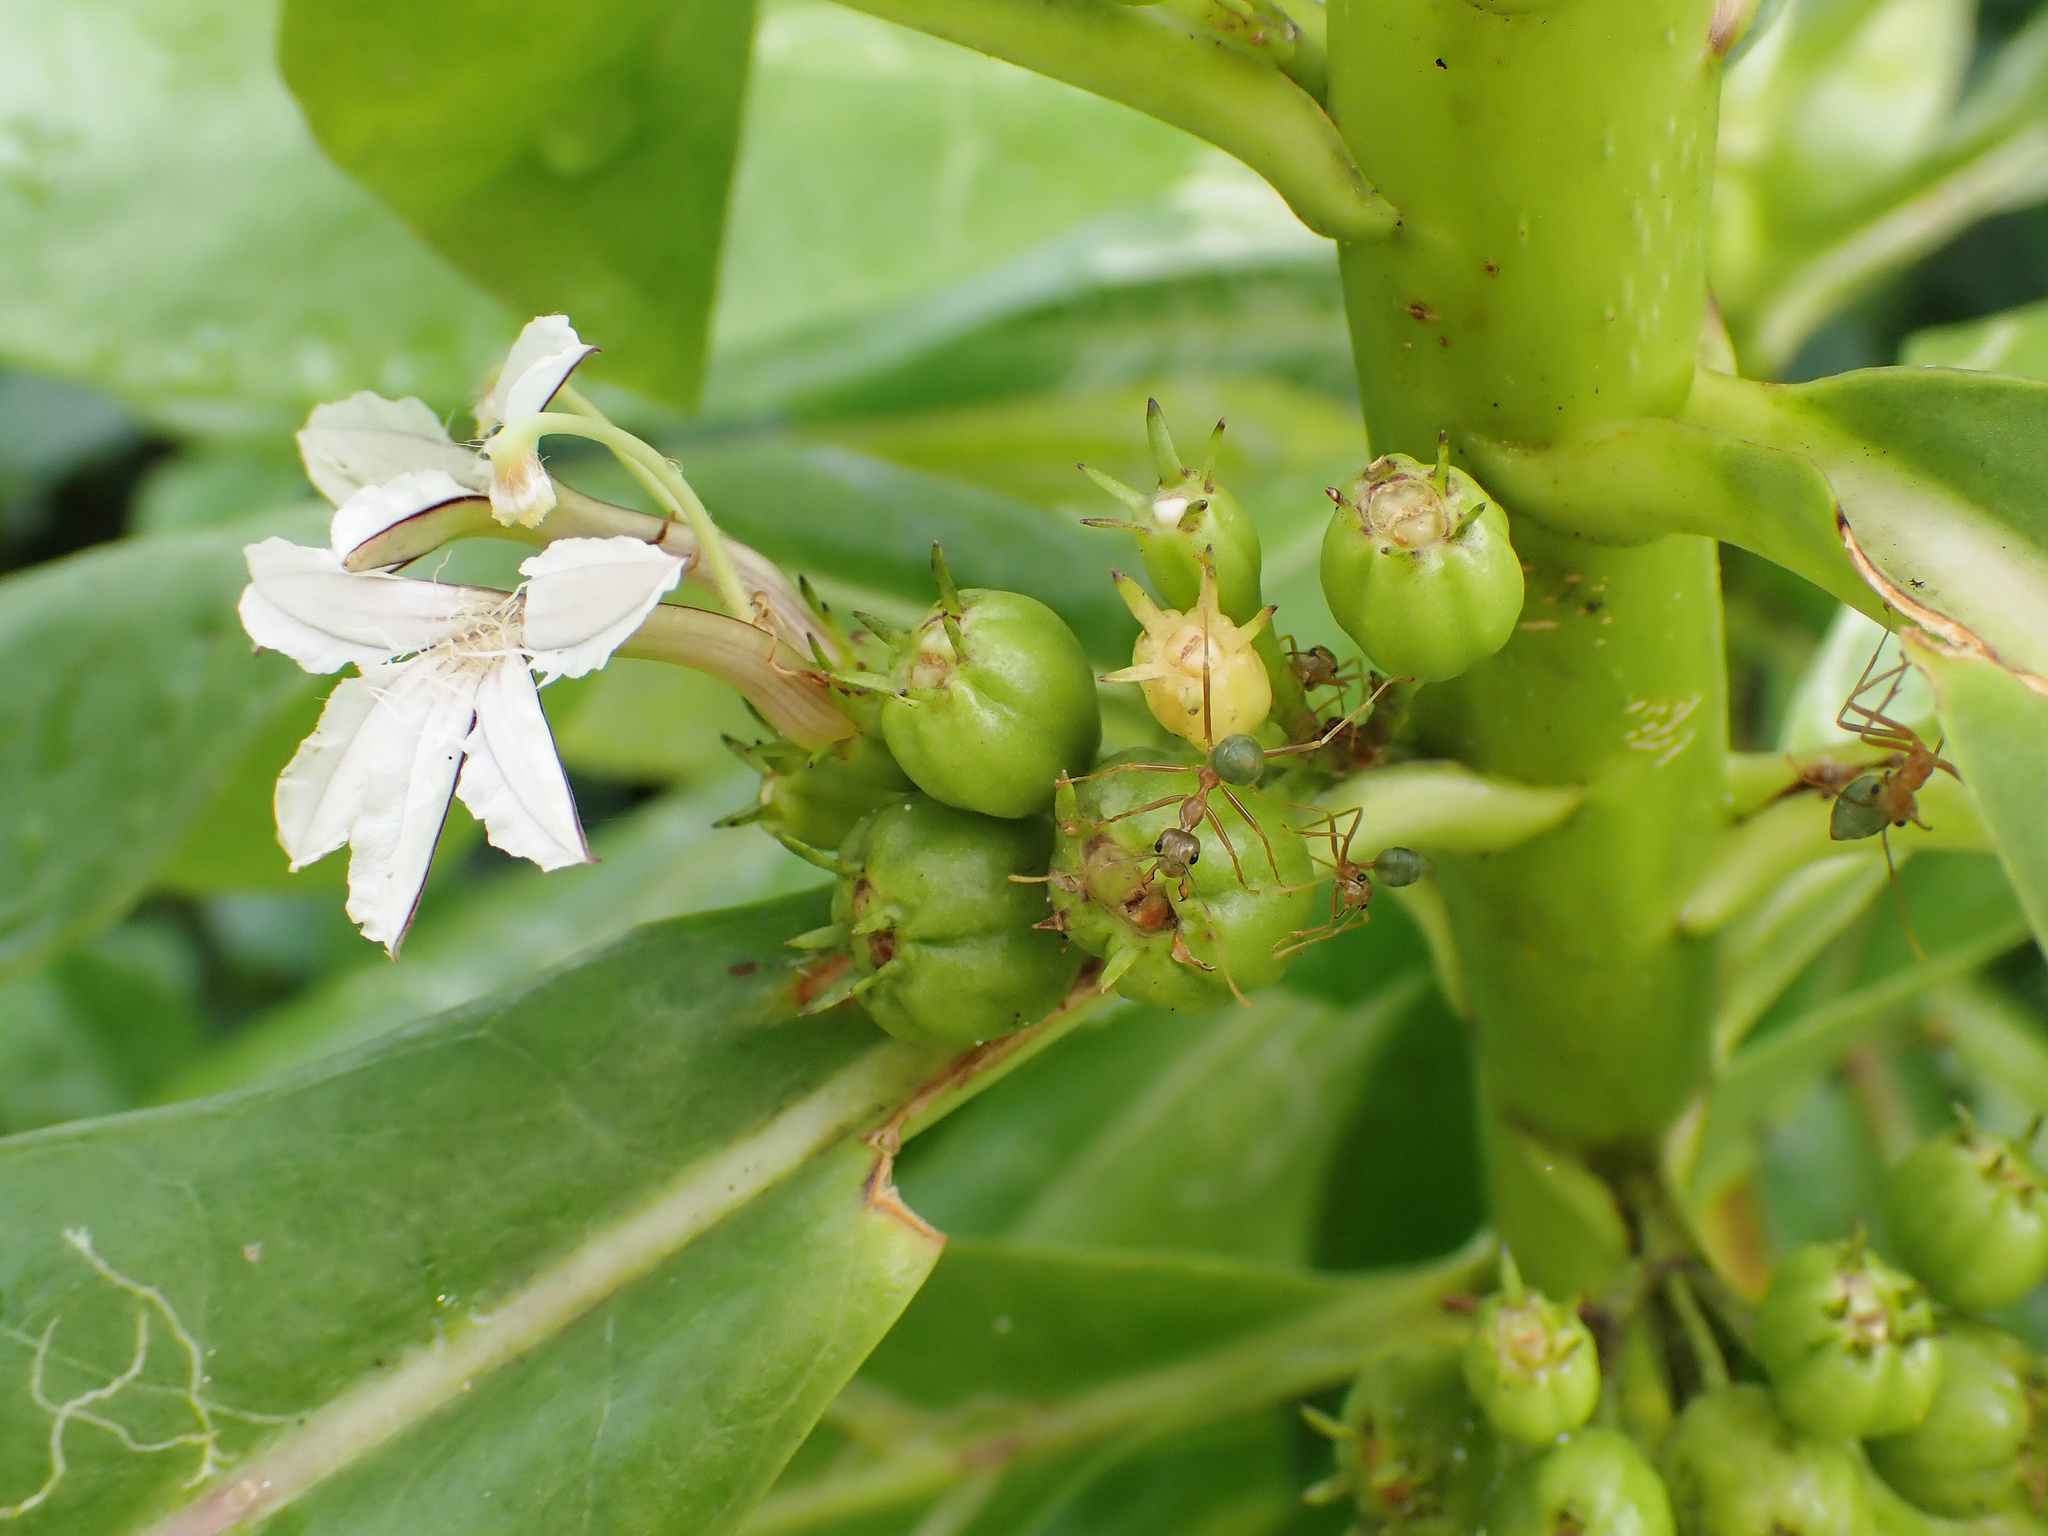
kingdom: Plantae
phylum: Tracheophyta
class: Magnoliopsida
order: Asterales
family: Goodeniaceae
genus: Scaevola
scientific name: Scaevola taccada
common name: Sea lettucetree
